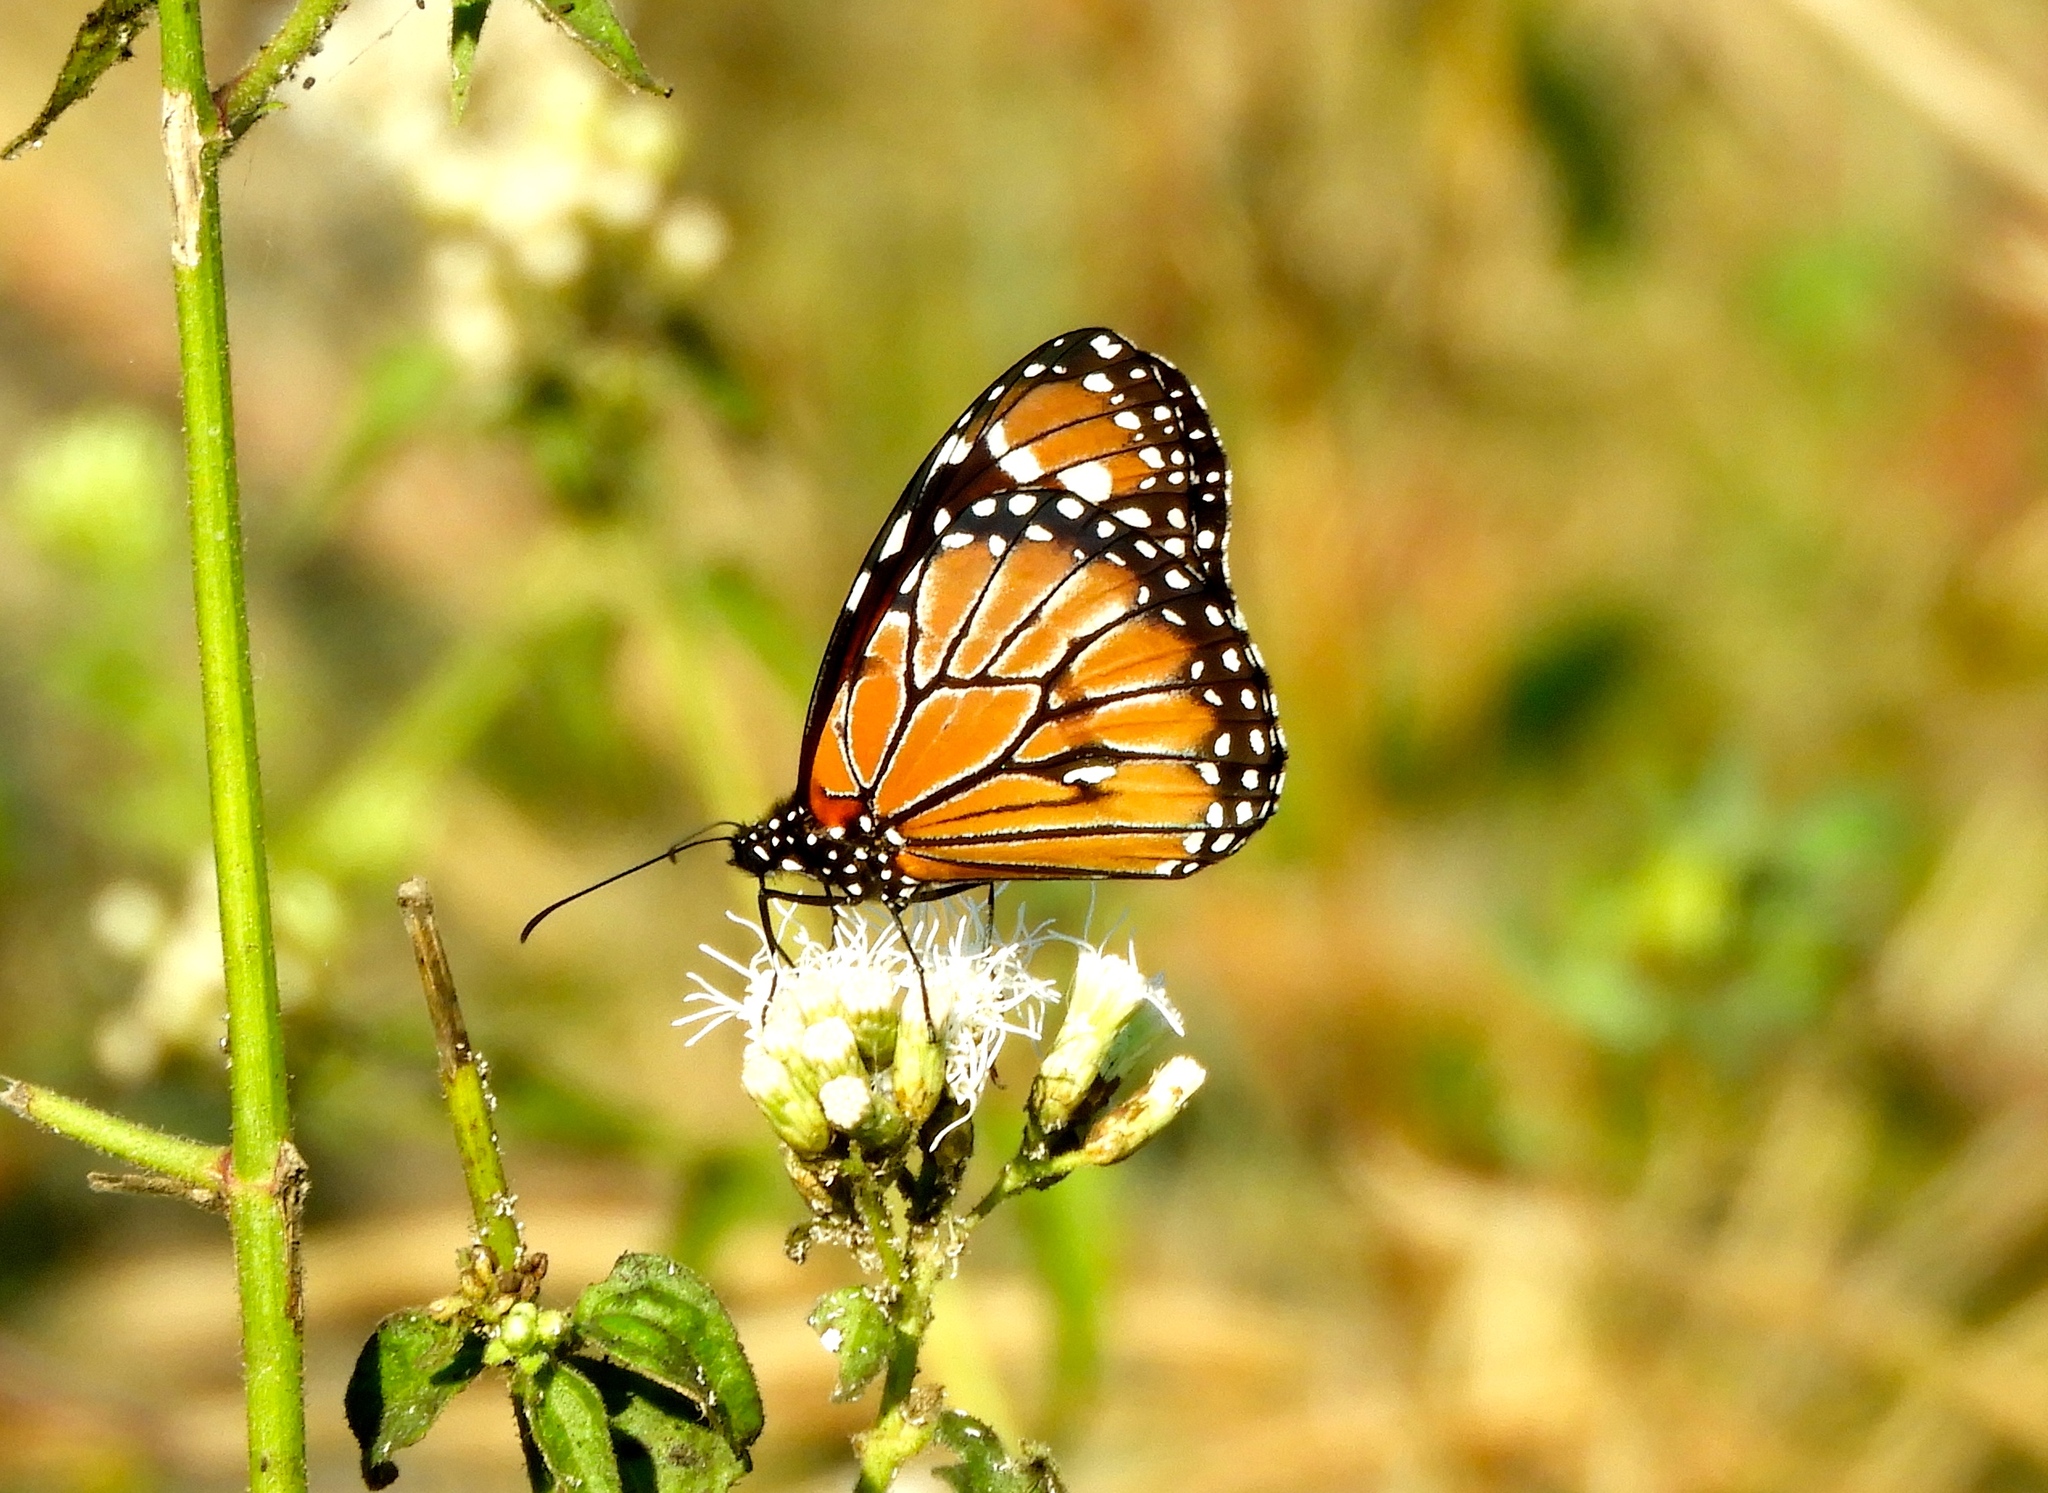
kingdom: Animalia
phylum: Arthropoda
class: Insecta
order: Lepidoptera
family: Nymphalidae
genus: Danaus
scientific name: Danaus eresimus
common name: Soldier
